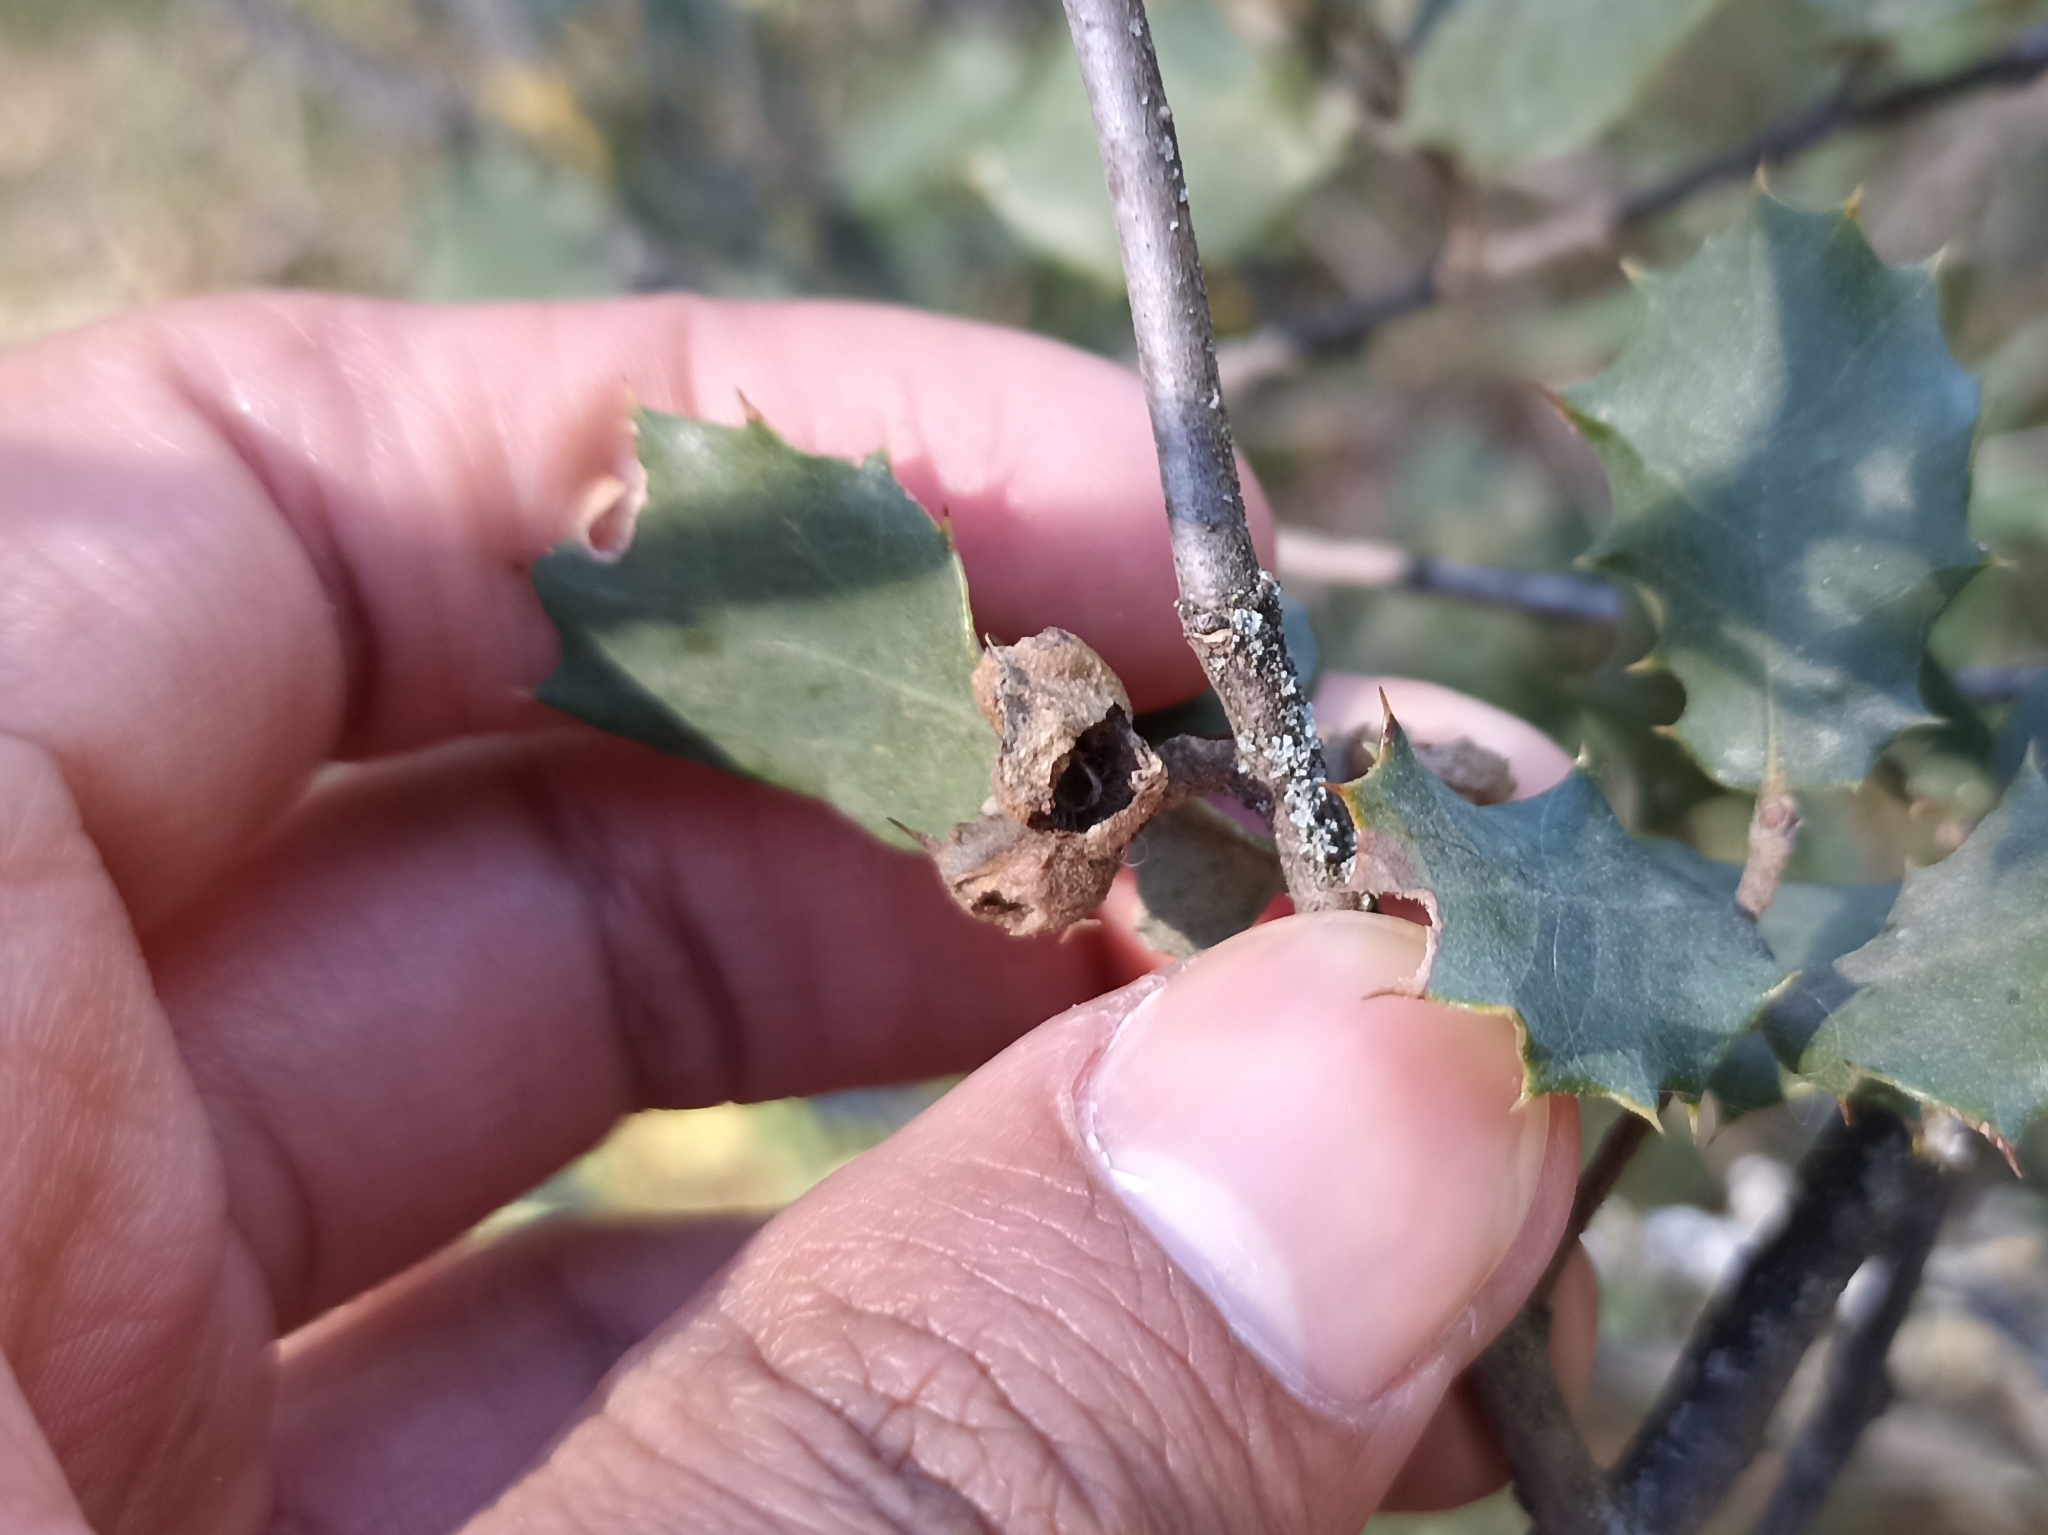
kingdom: Animalia
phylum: Arthropoda
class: Insecta
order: Hymenoptera
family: Cynipidae
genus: Plagiotrochus
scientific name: Plagiotrochus quercusilicis
